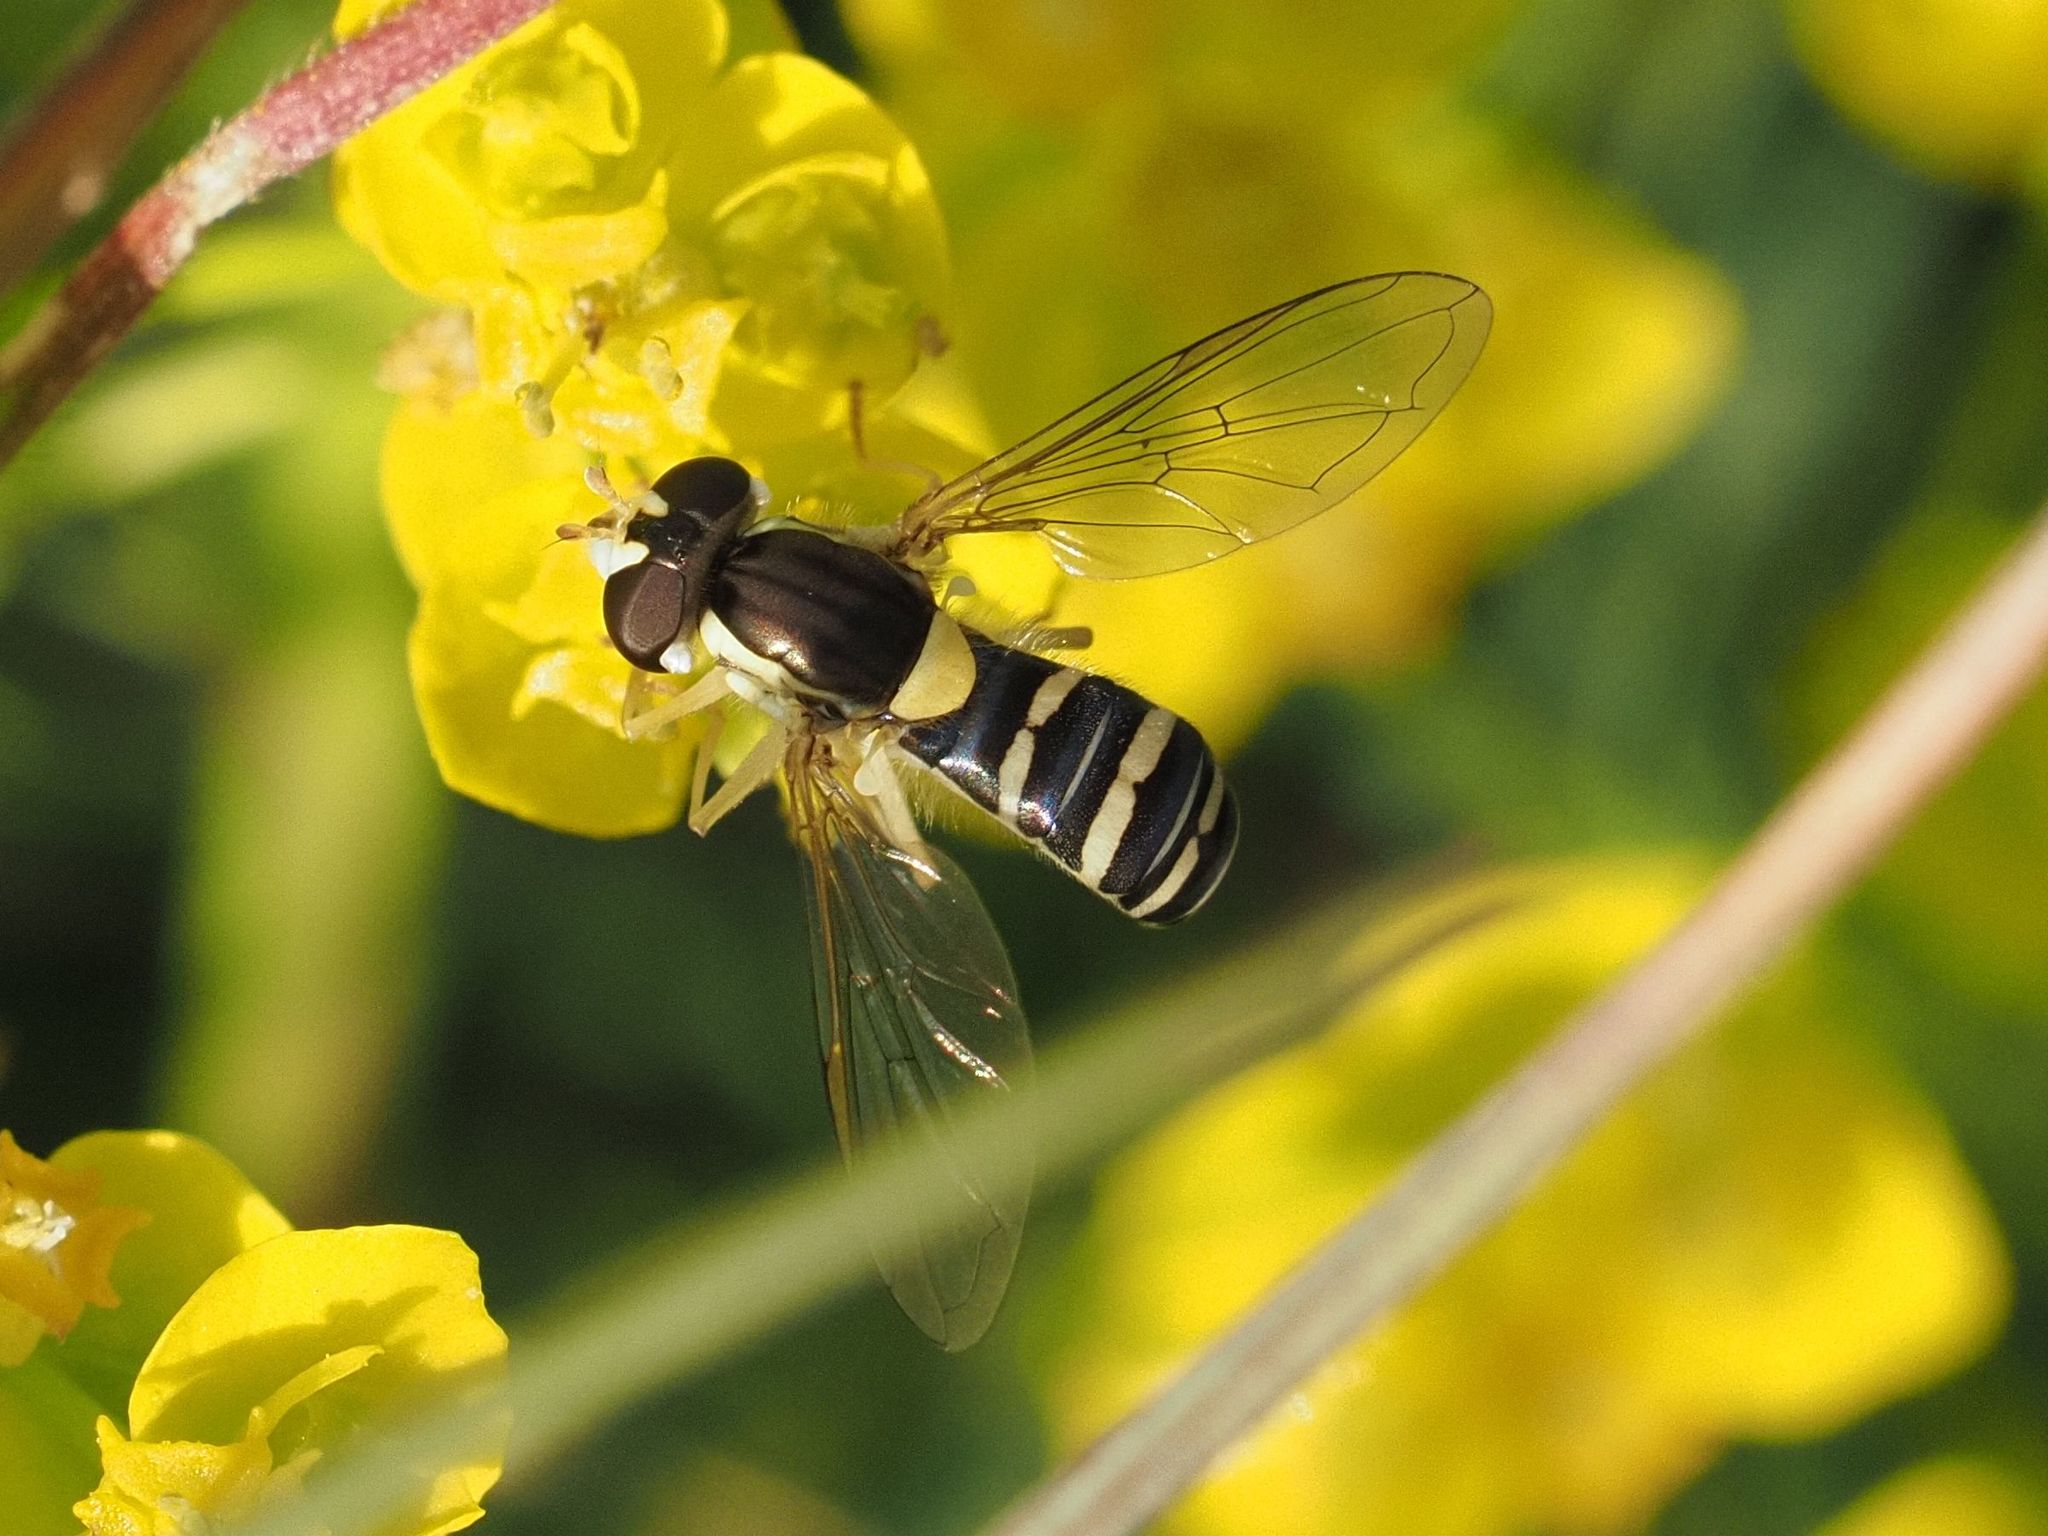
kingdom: Animalia
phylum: Arthropoda
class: Insecta
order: Diptera
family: Syrphidae
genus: Sphaerophoria
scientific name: Sphaerophoria
